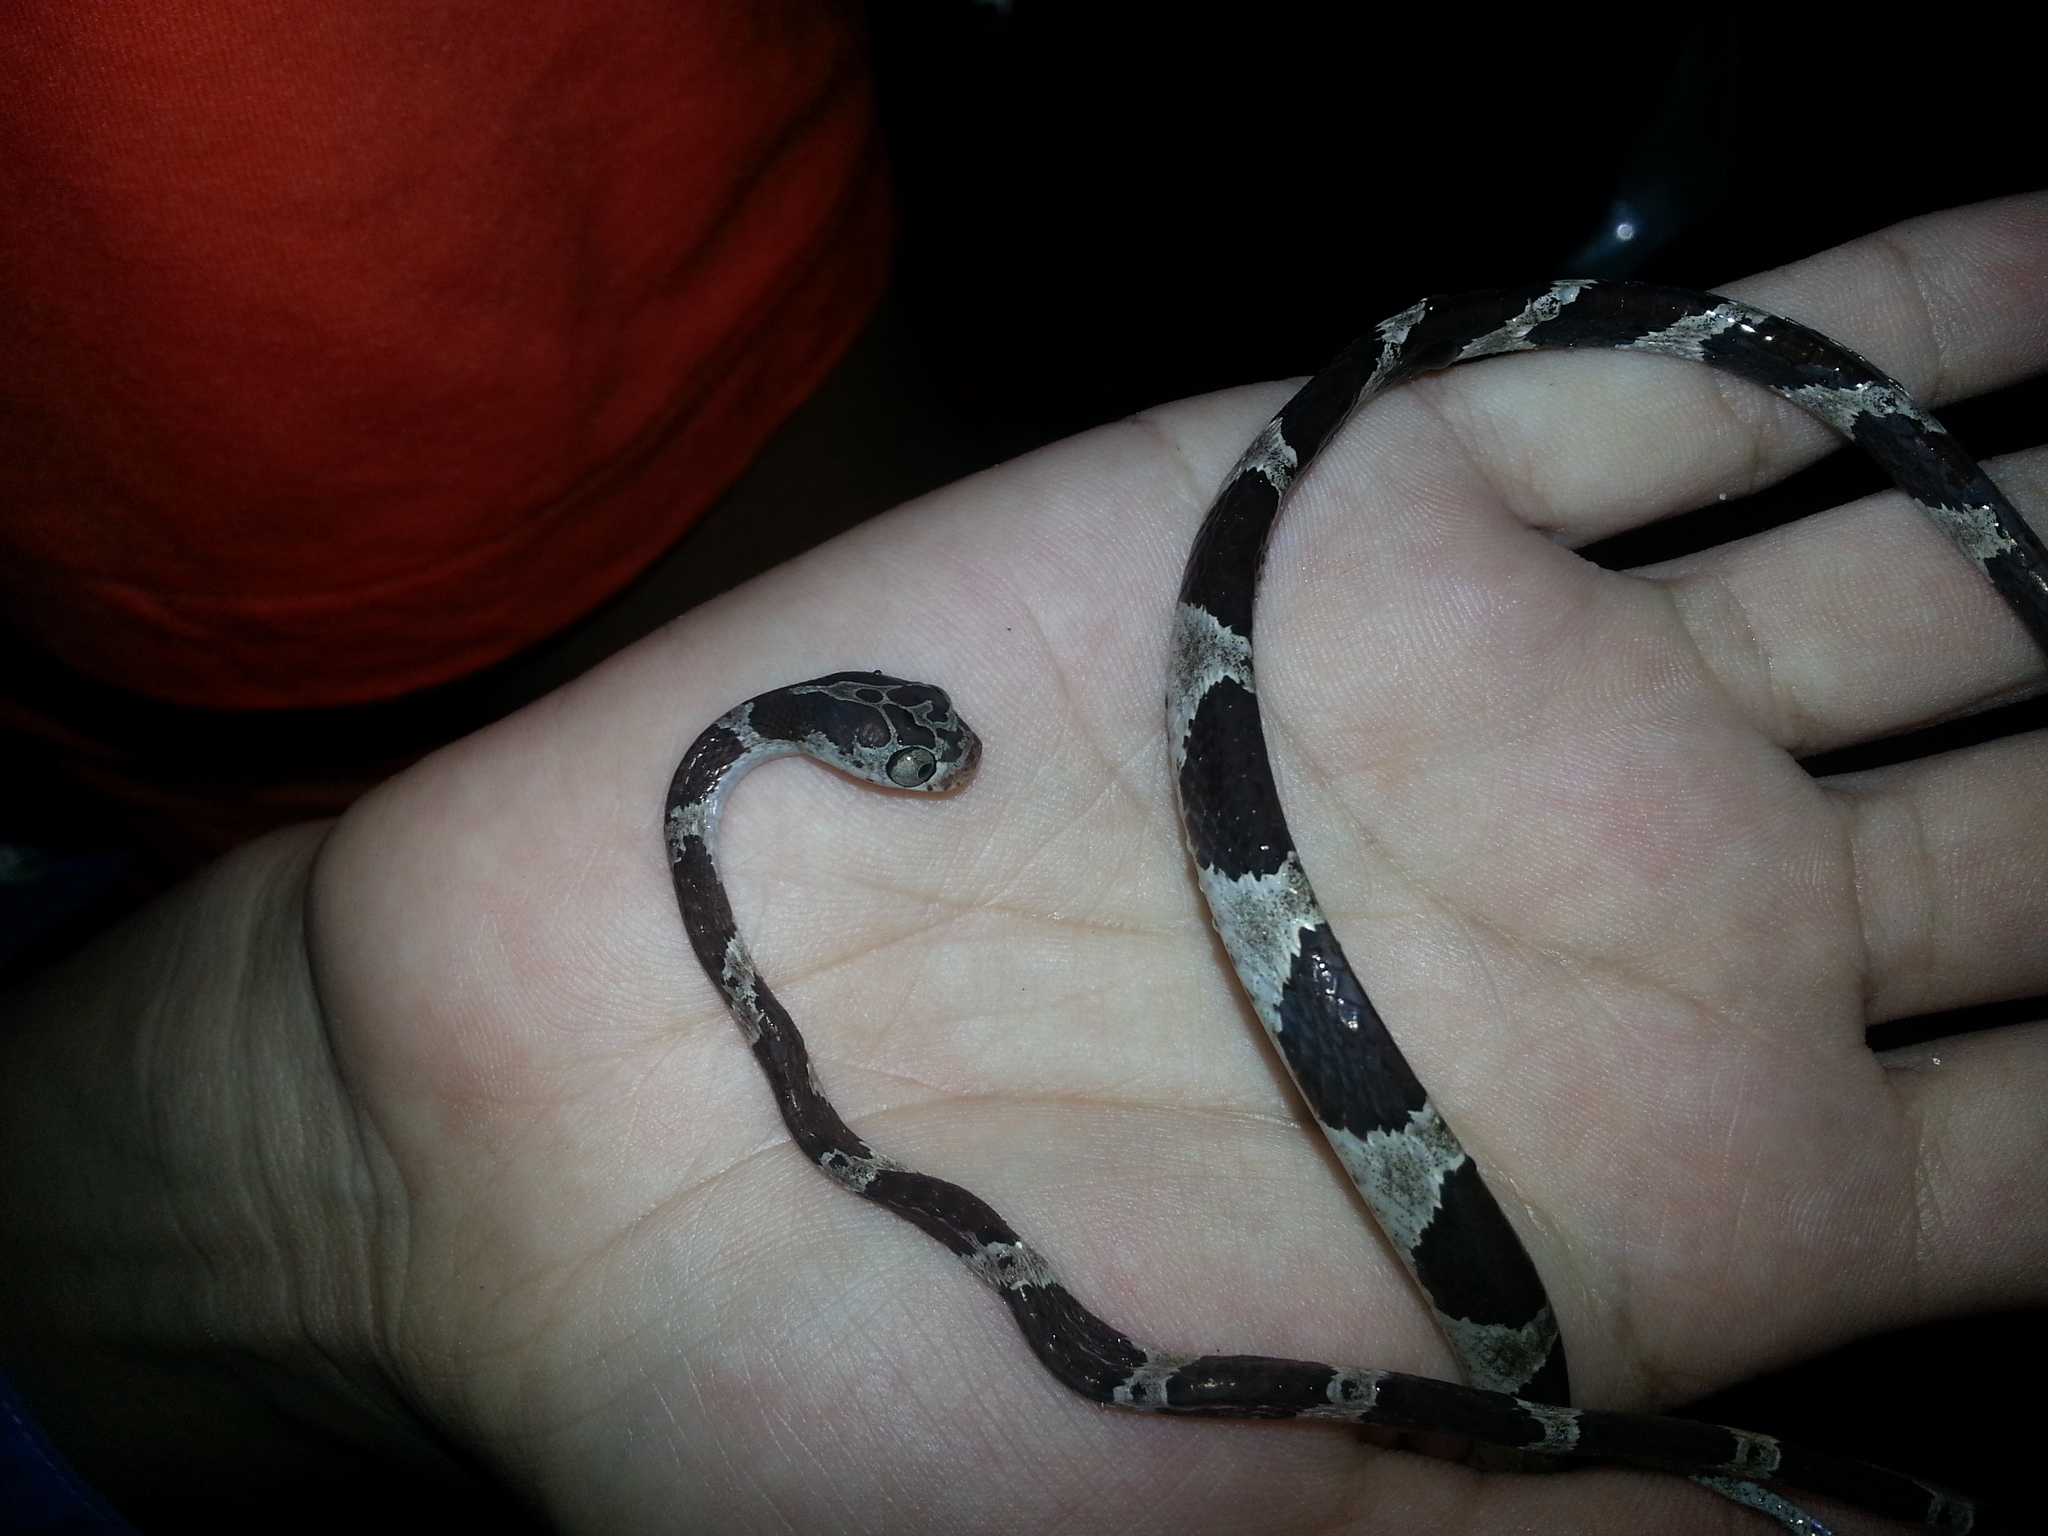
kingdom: Animalia
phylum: Chordata
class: Squamata
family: Colubridae
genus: Imantodes
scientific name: Imantodes cenchoa
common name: Blunthead tree snake
